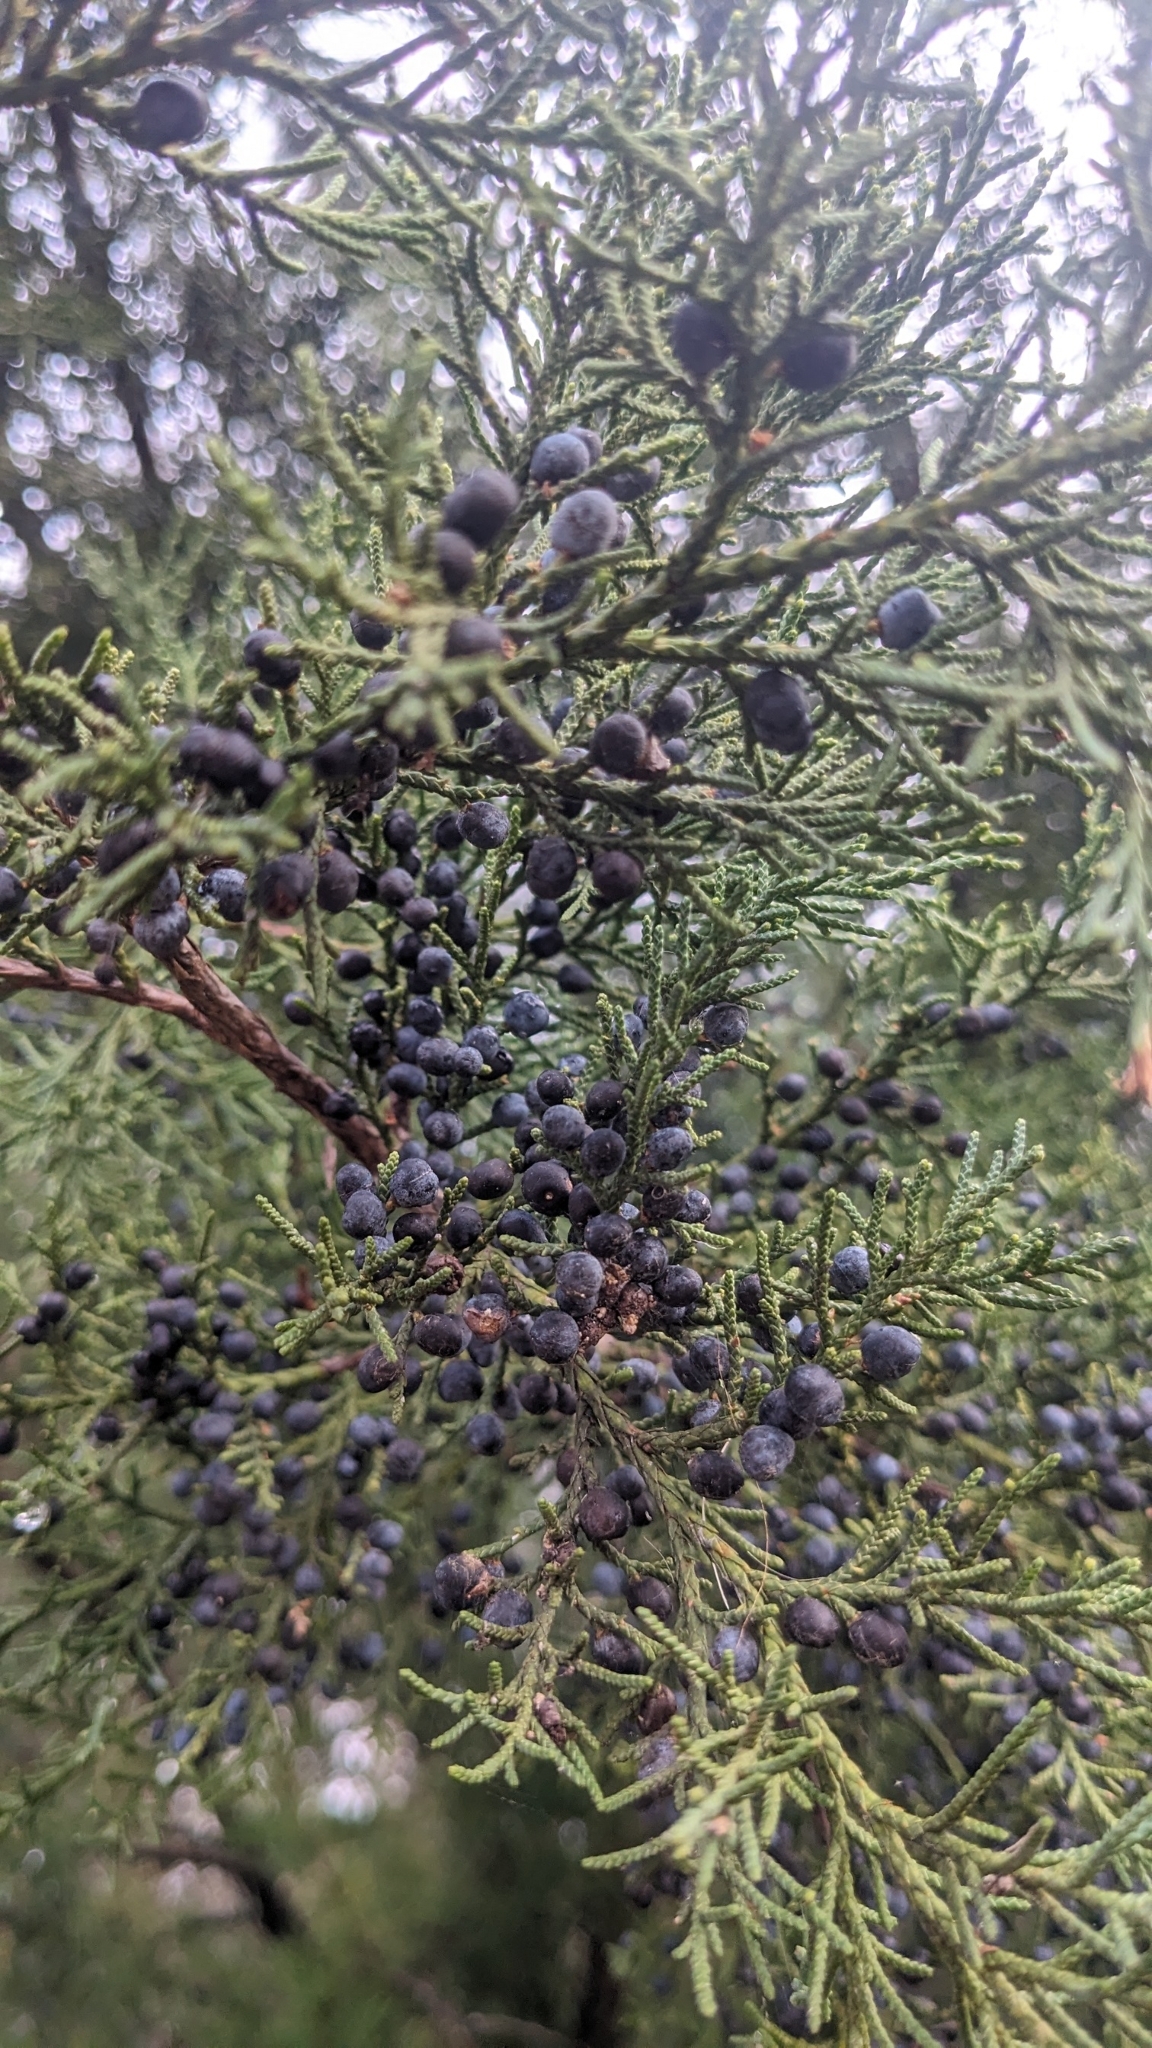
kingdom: Plantae
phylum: Tracheophyta
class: Pinopsida
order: Pinales
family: Cupressaceae
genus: Juniperus
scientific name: Juniperus virginiana
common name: Red juniper
